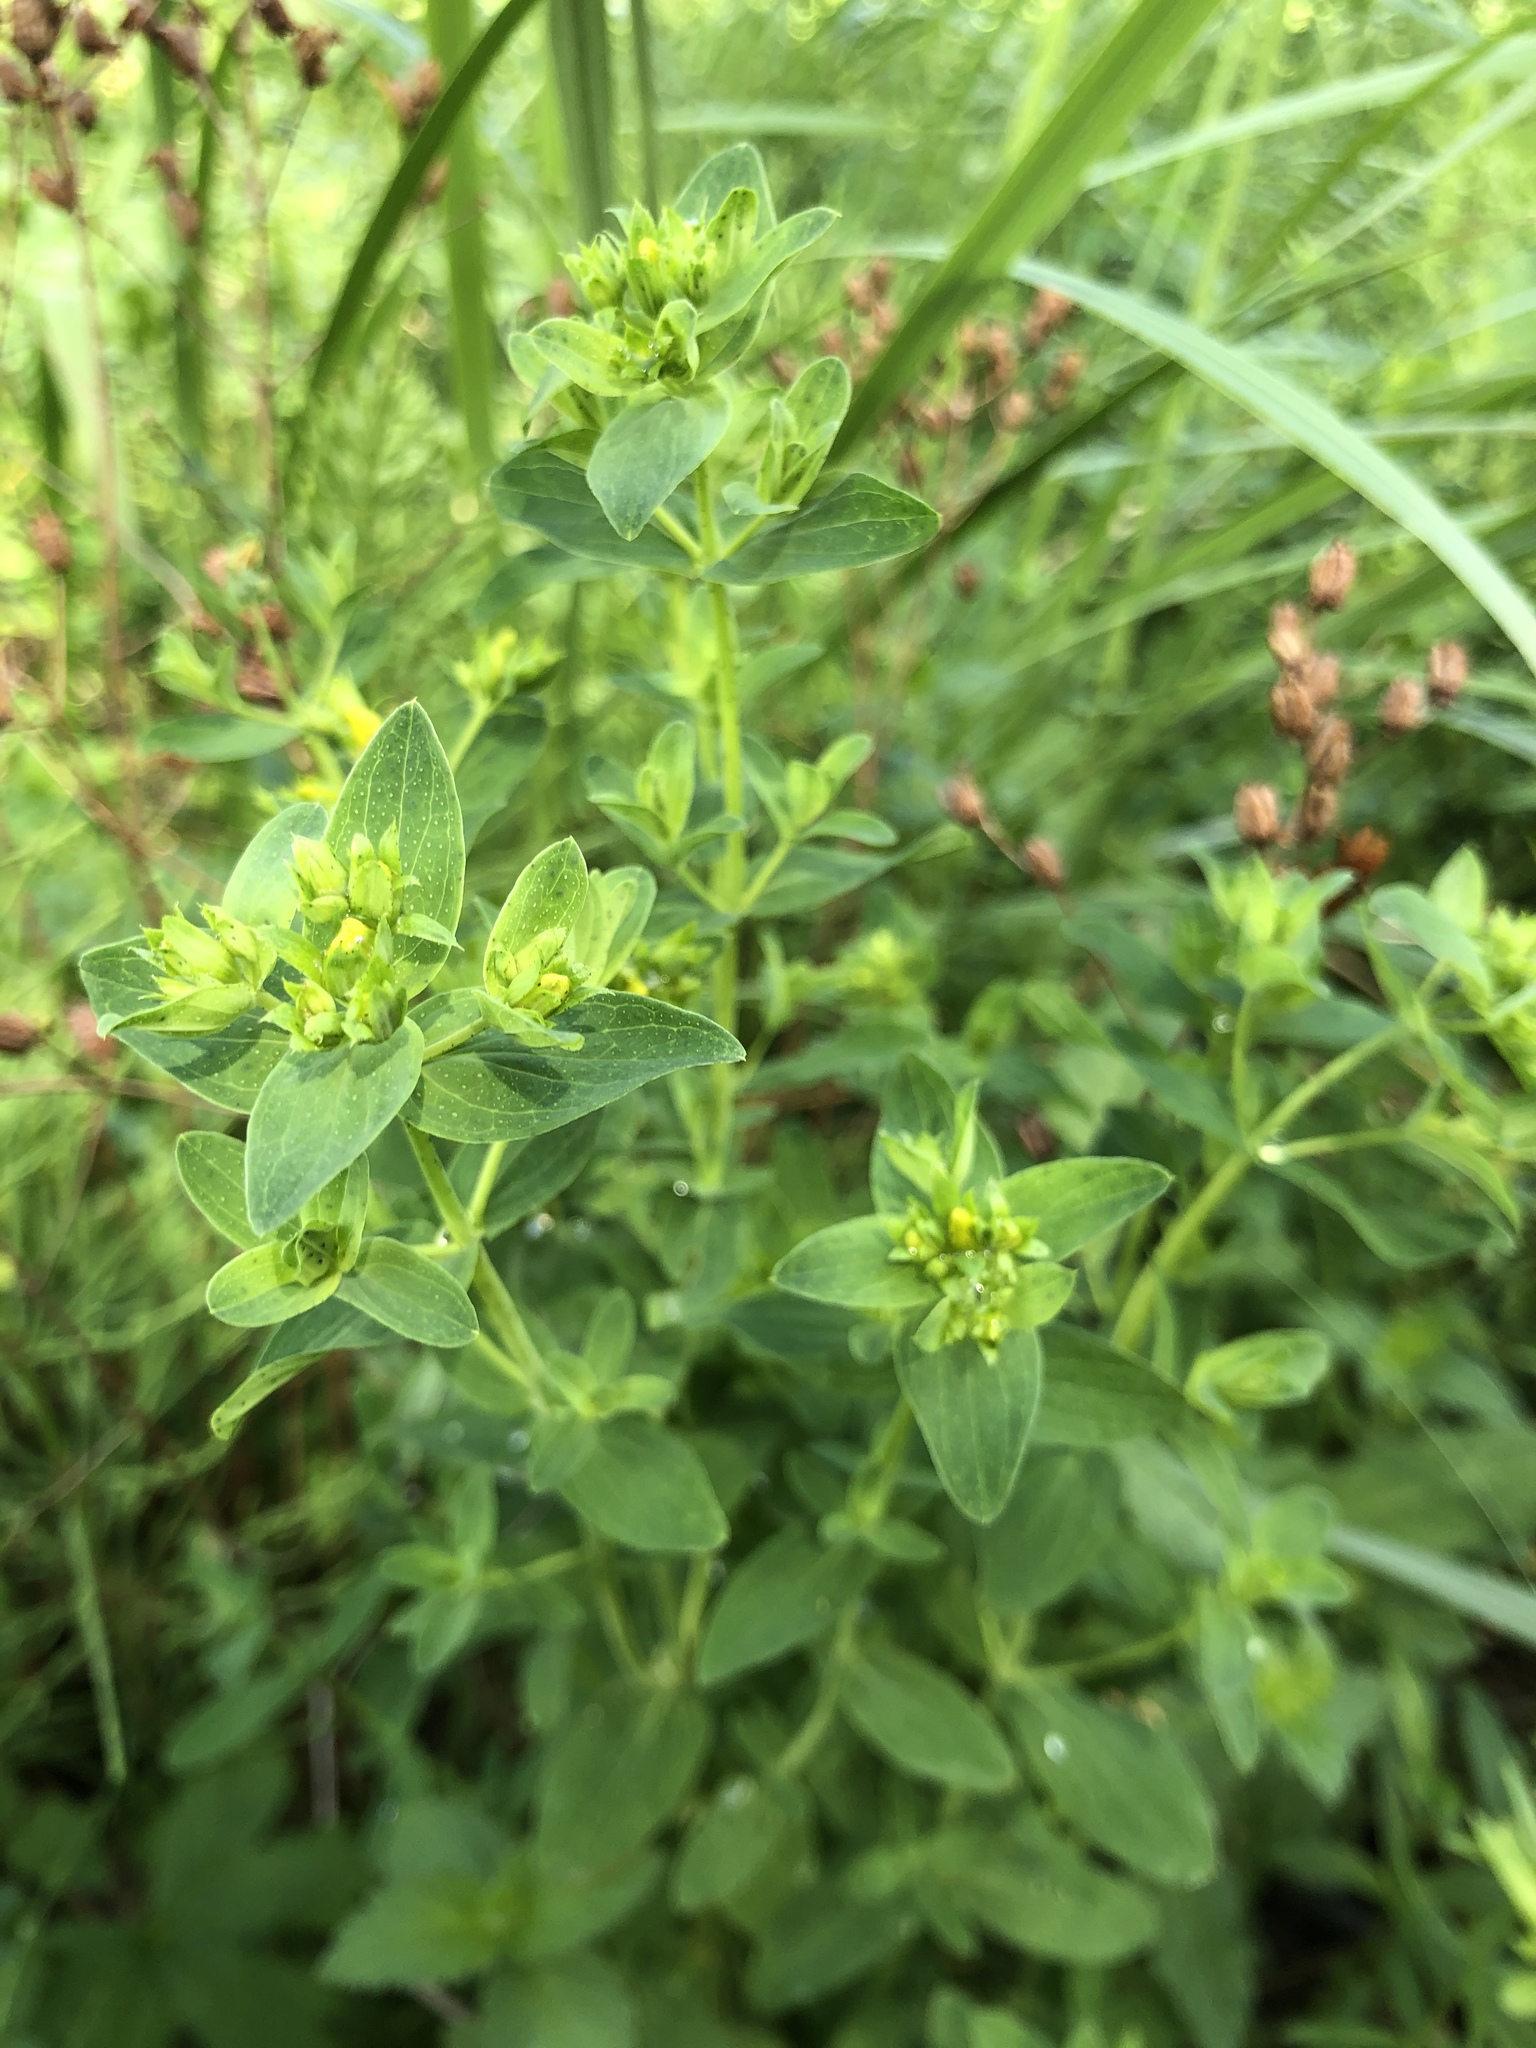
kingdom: Plantae
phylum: Tracheophyta
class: Magnoliopsida
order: Malpighiales
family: Hypericaceae
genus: Hypericum
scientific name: Hypericum perforatum
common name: Common st. johnswort
